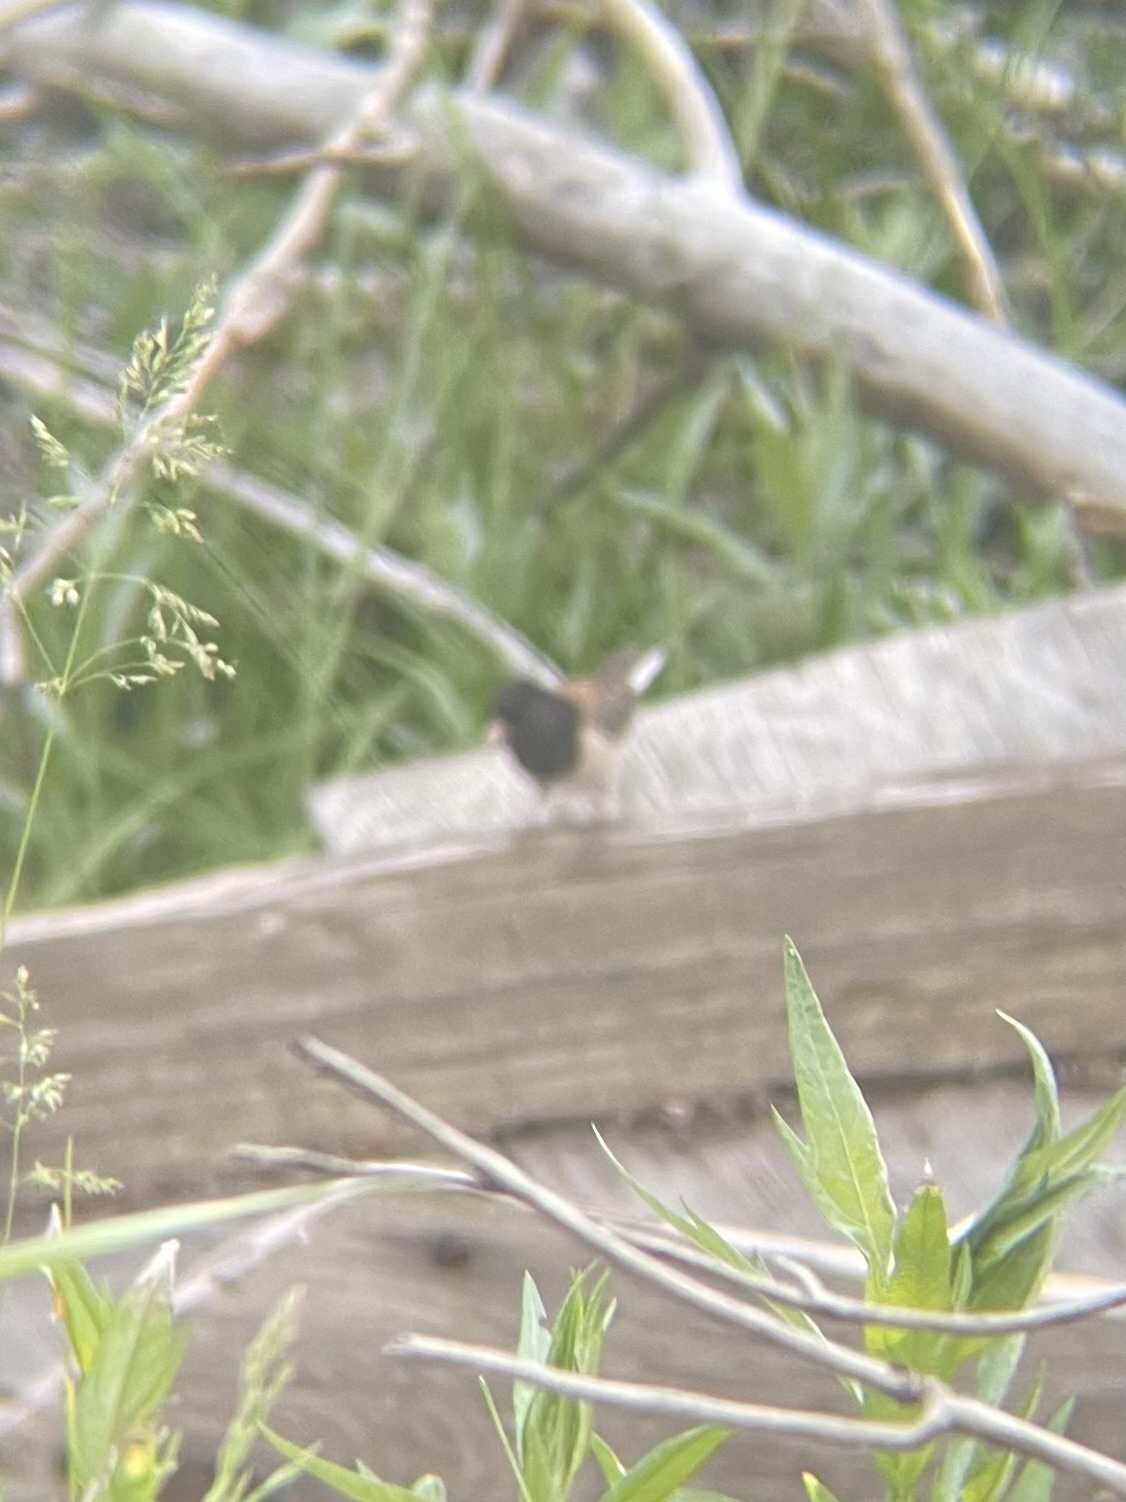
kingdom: Animalia
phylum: Chordata
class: Aves
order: Passeriformes
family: Passerellidae
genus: Junco
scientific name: Junco hyemalis
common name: Dark-eyed junco
